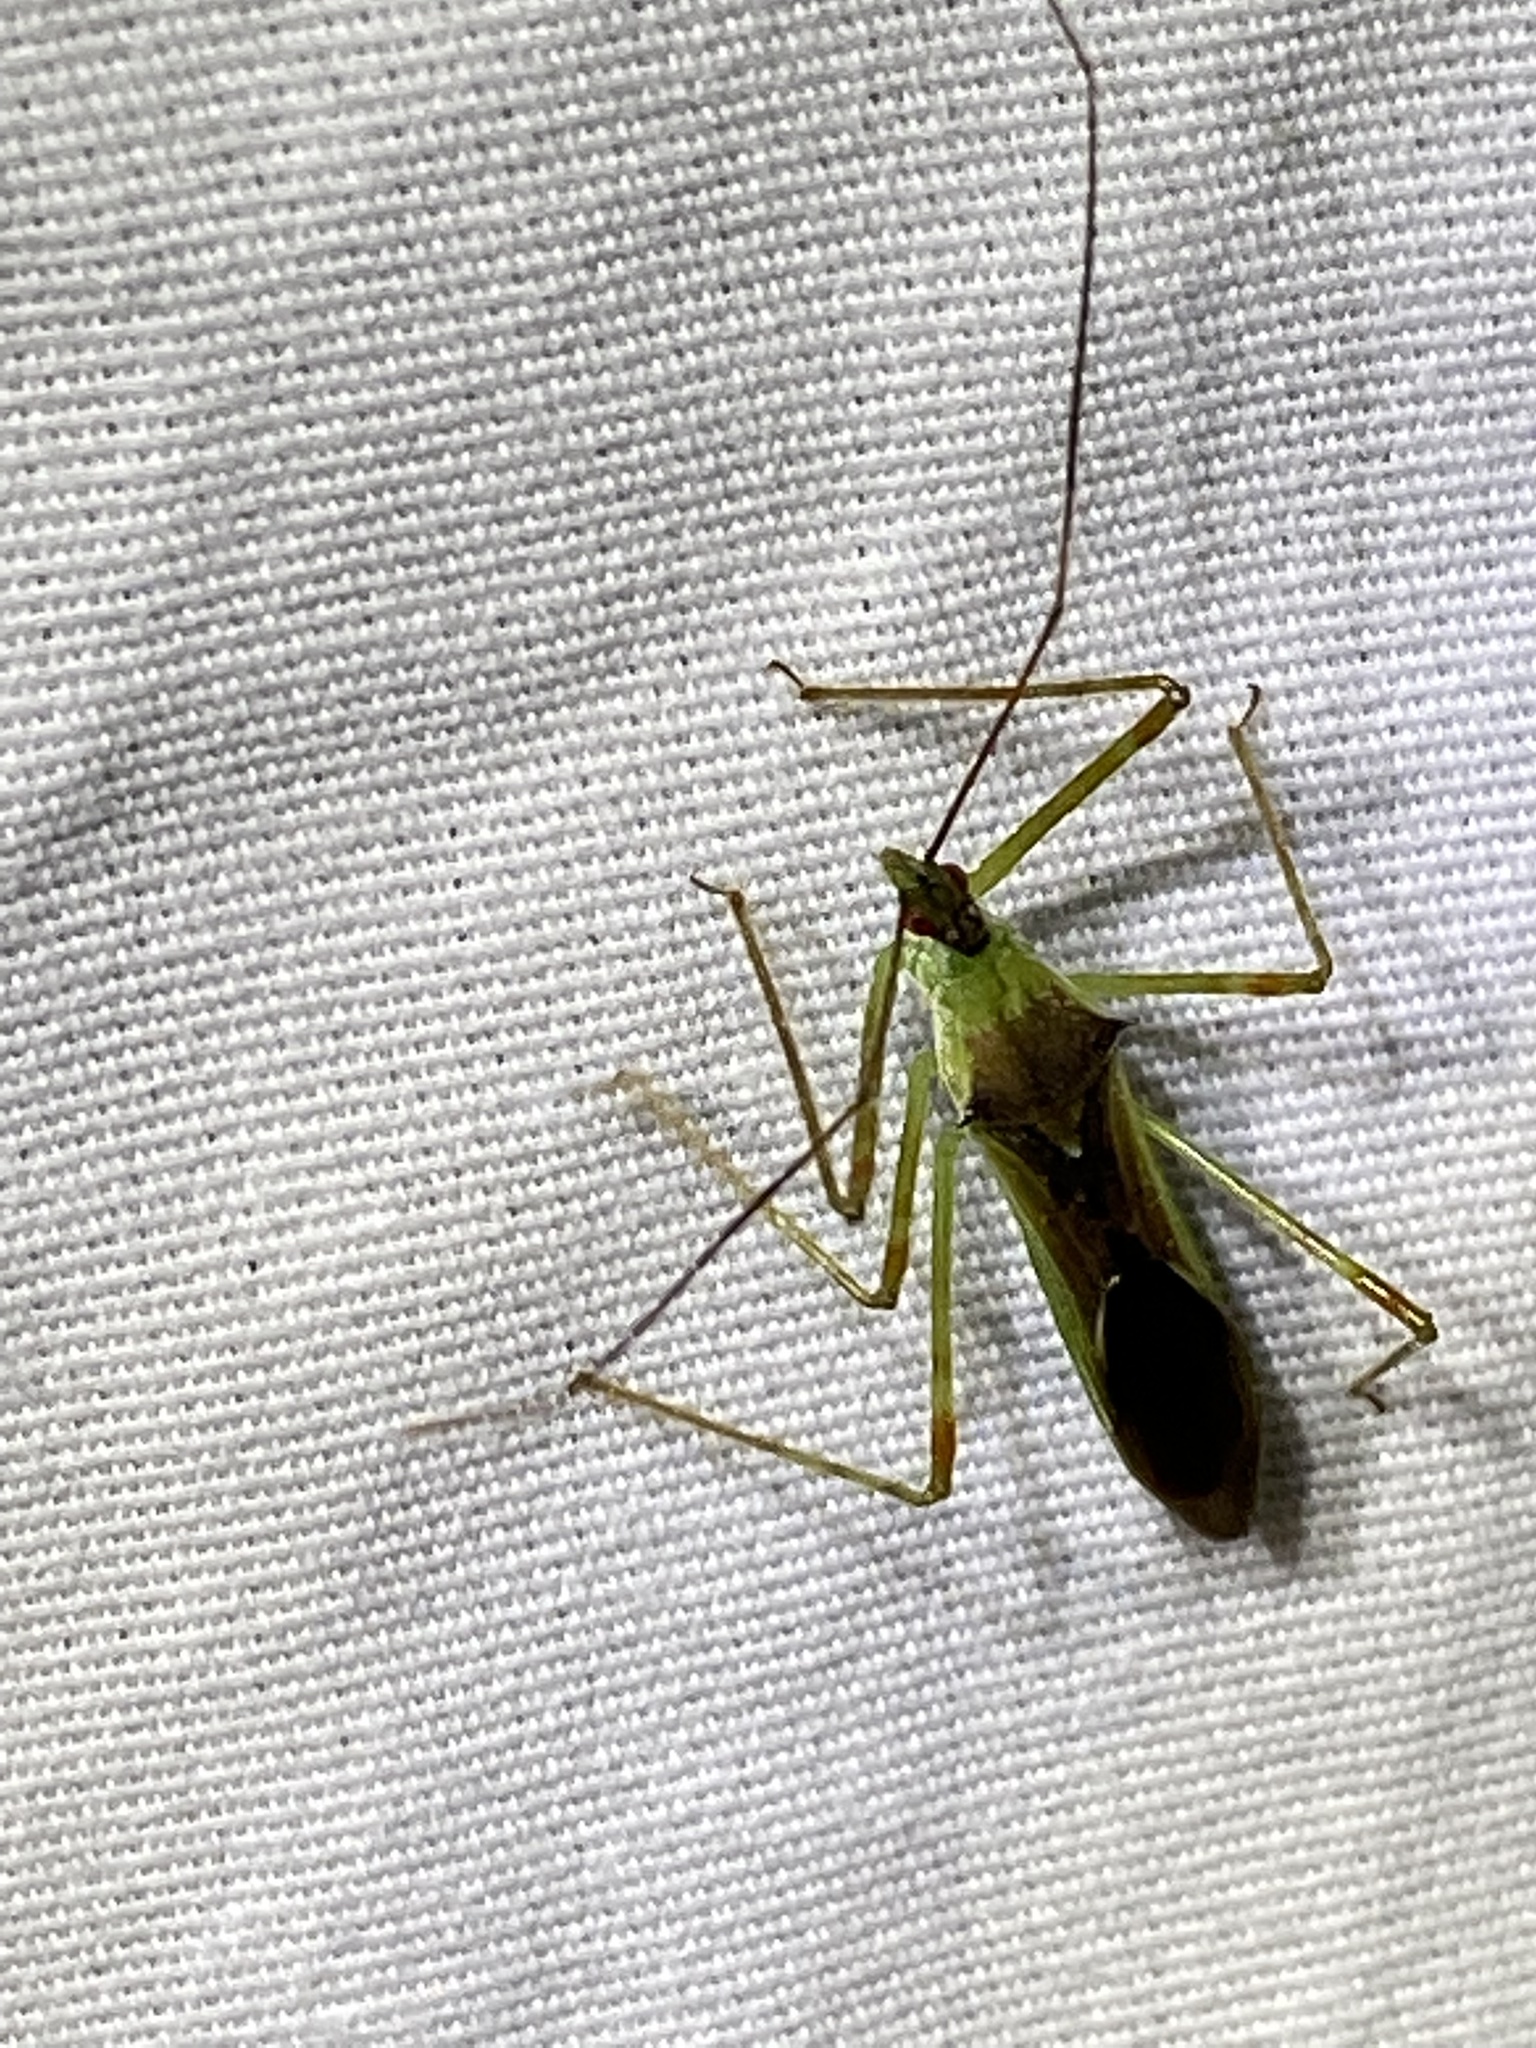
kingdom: Animalia
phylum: Arthropoda
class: Insecta
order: Hemiptera
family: Reduviidae
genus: Zelus
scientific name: Zelus luridus
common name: Pale green assassin bug
